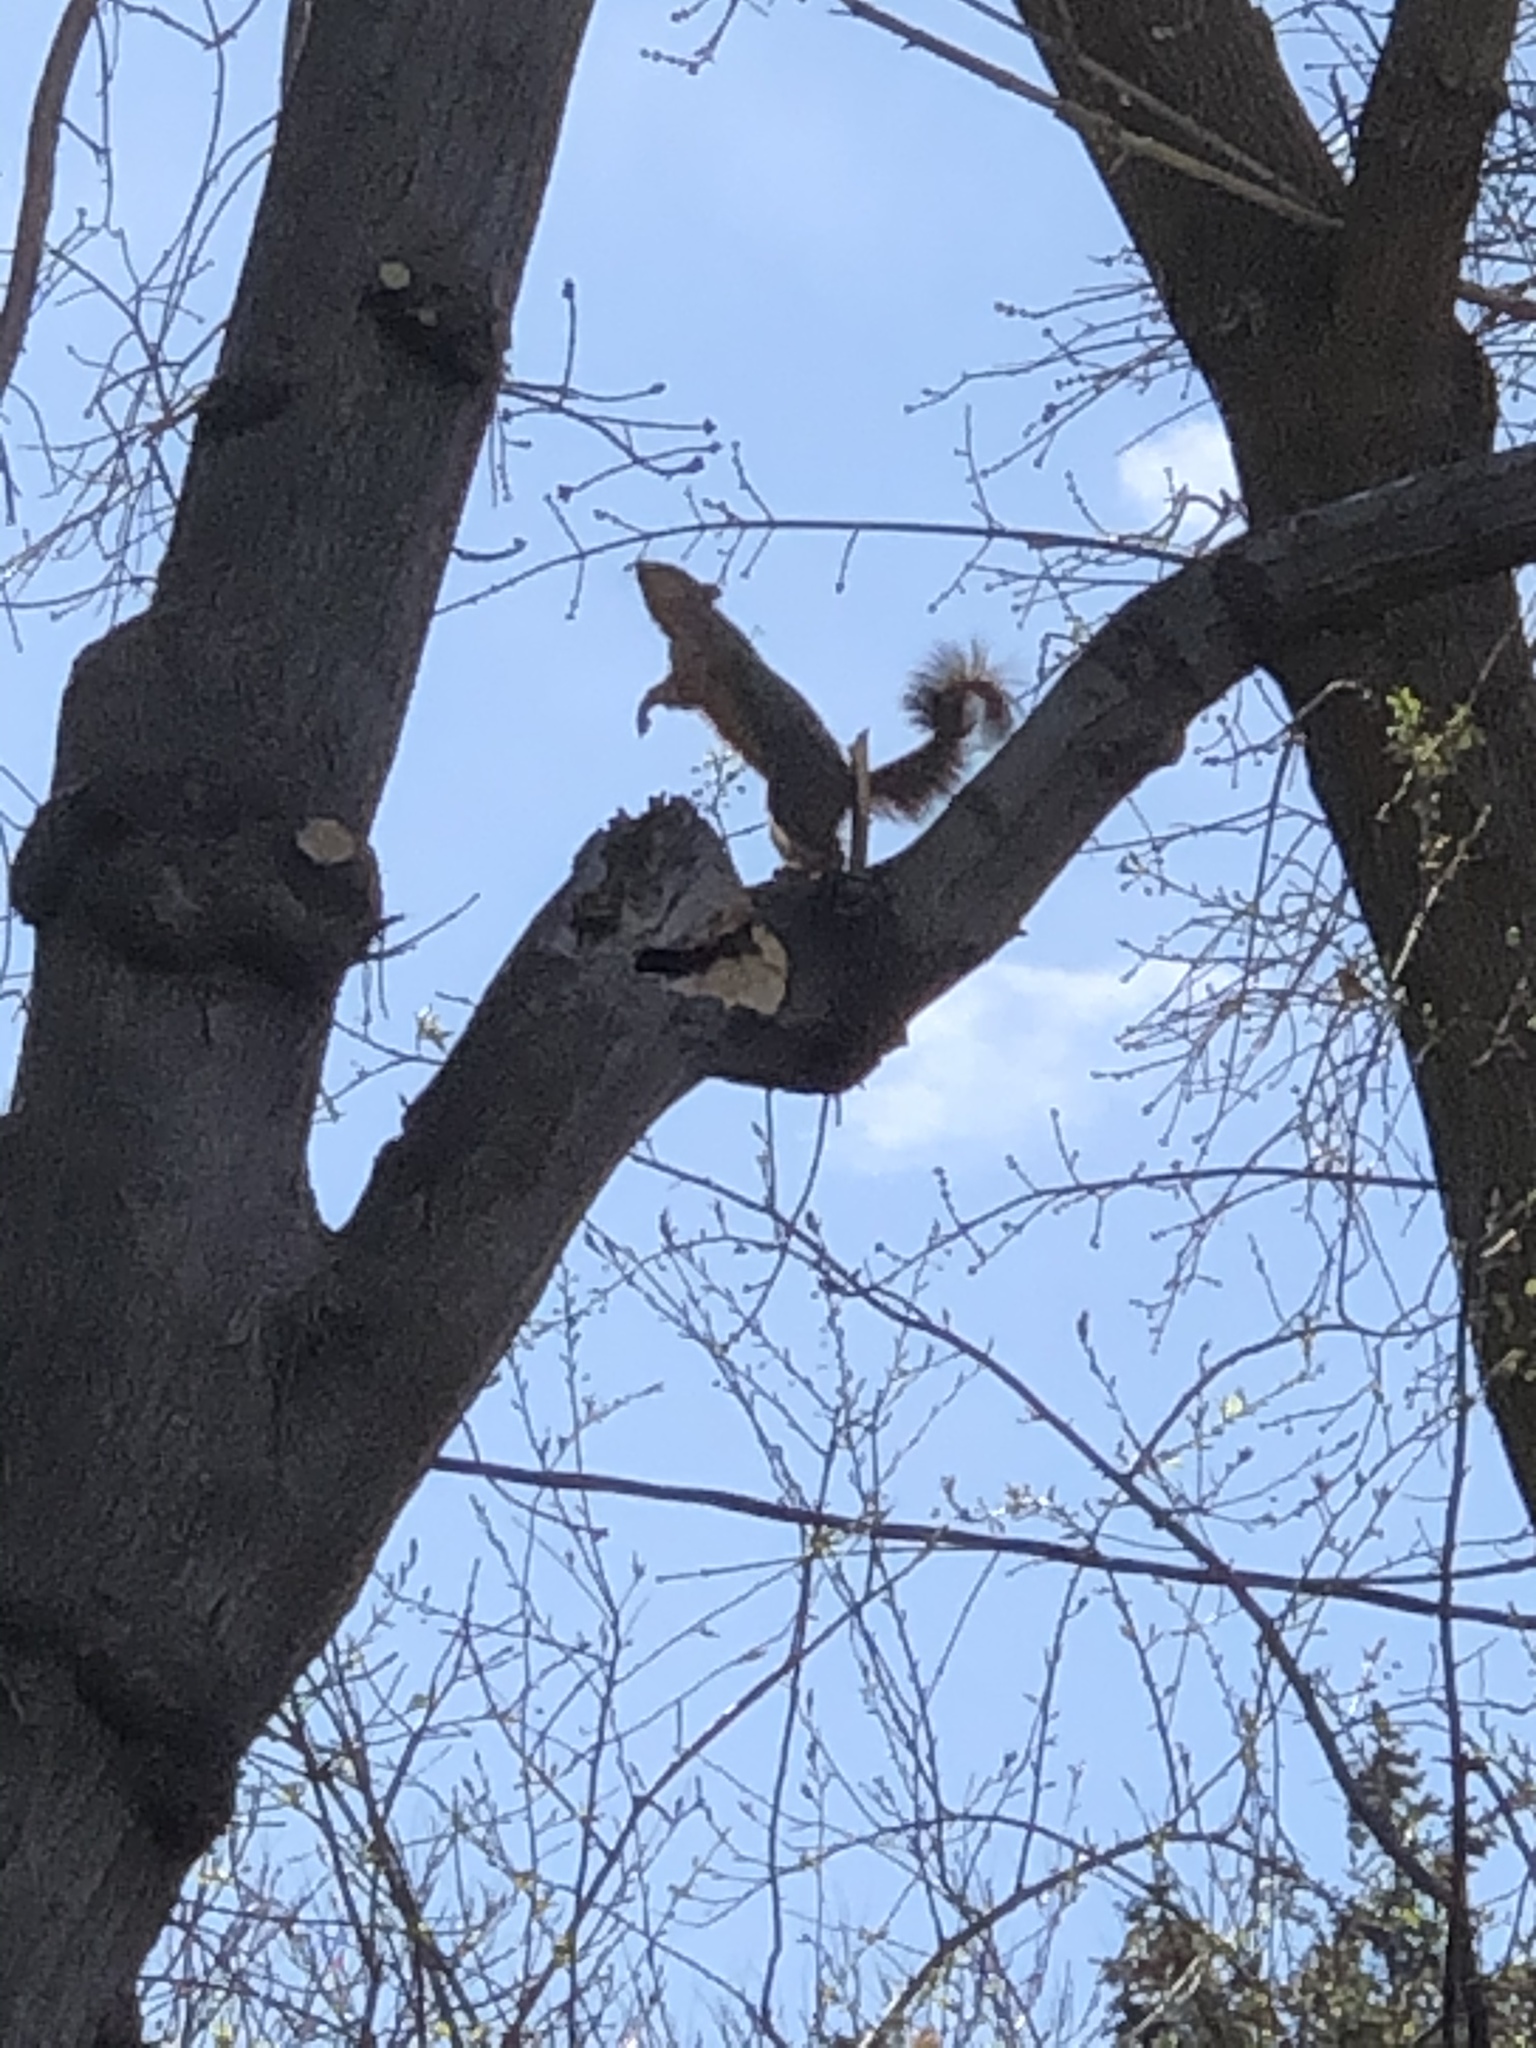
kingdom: Animalia
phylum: Chordata
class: Mammalia
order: Rodentia
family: Sciuridae
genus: Sciurus
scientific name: Sciurus niger
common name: Fox squirrel
